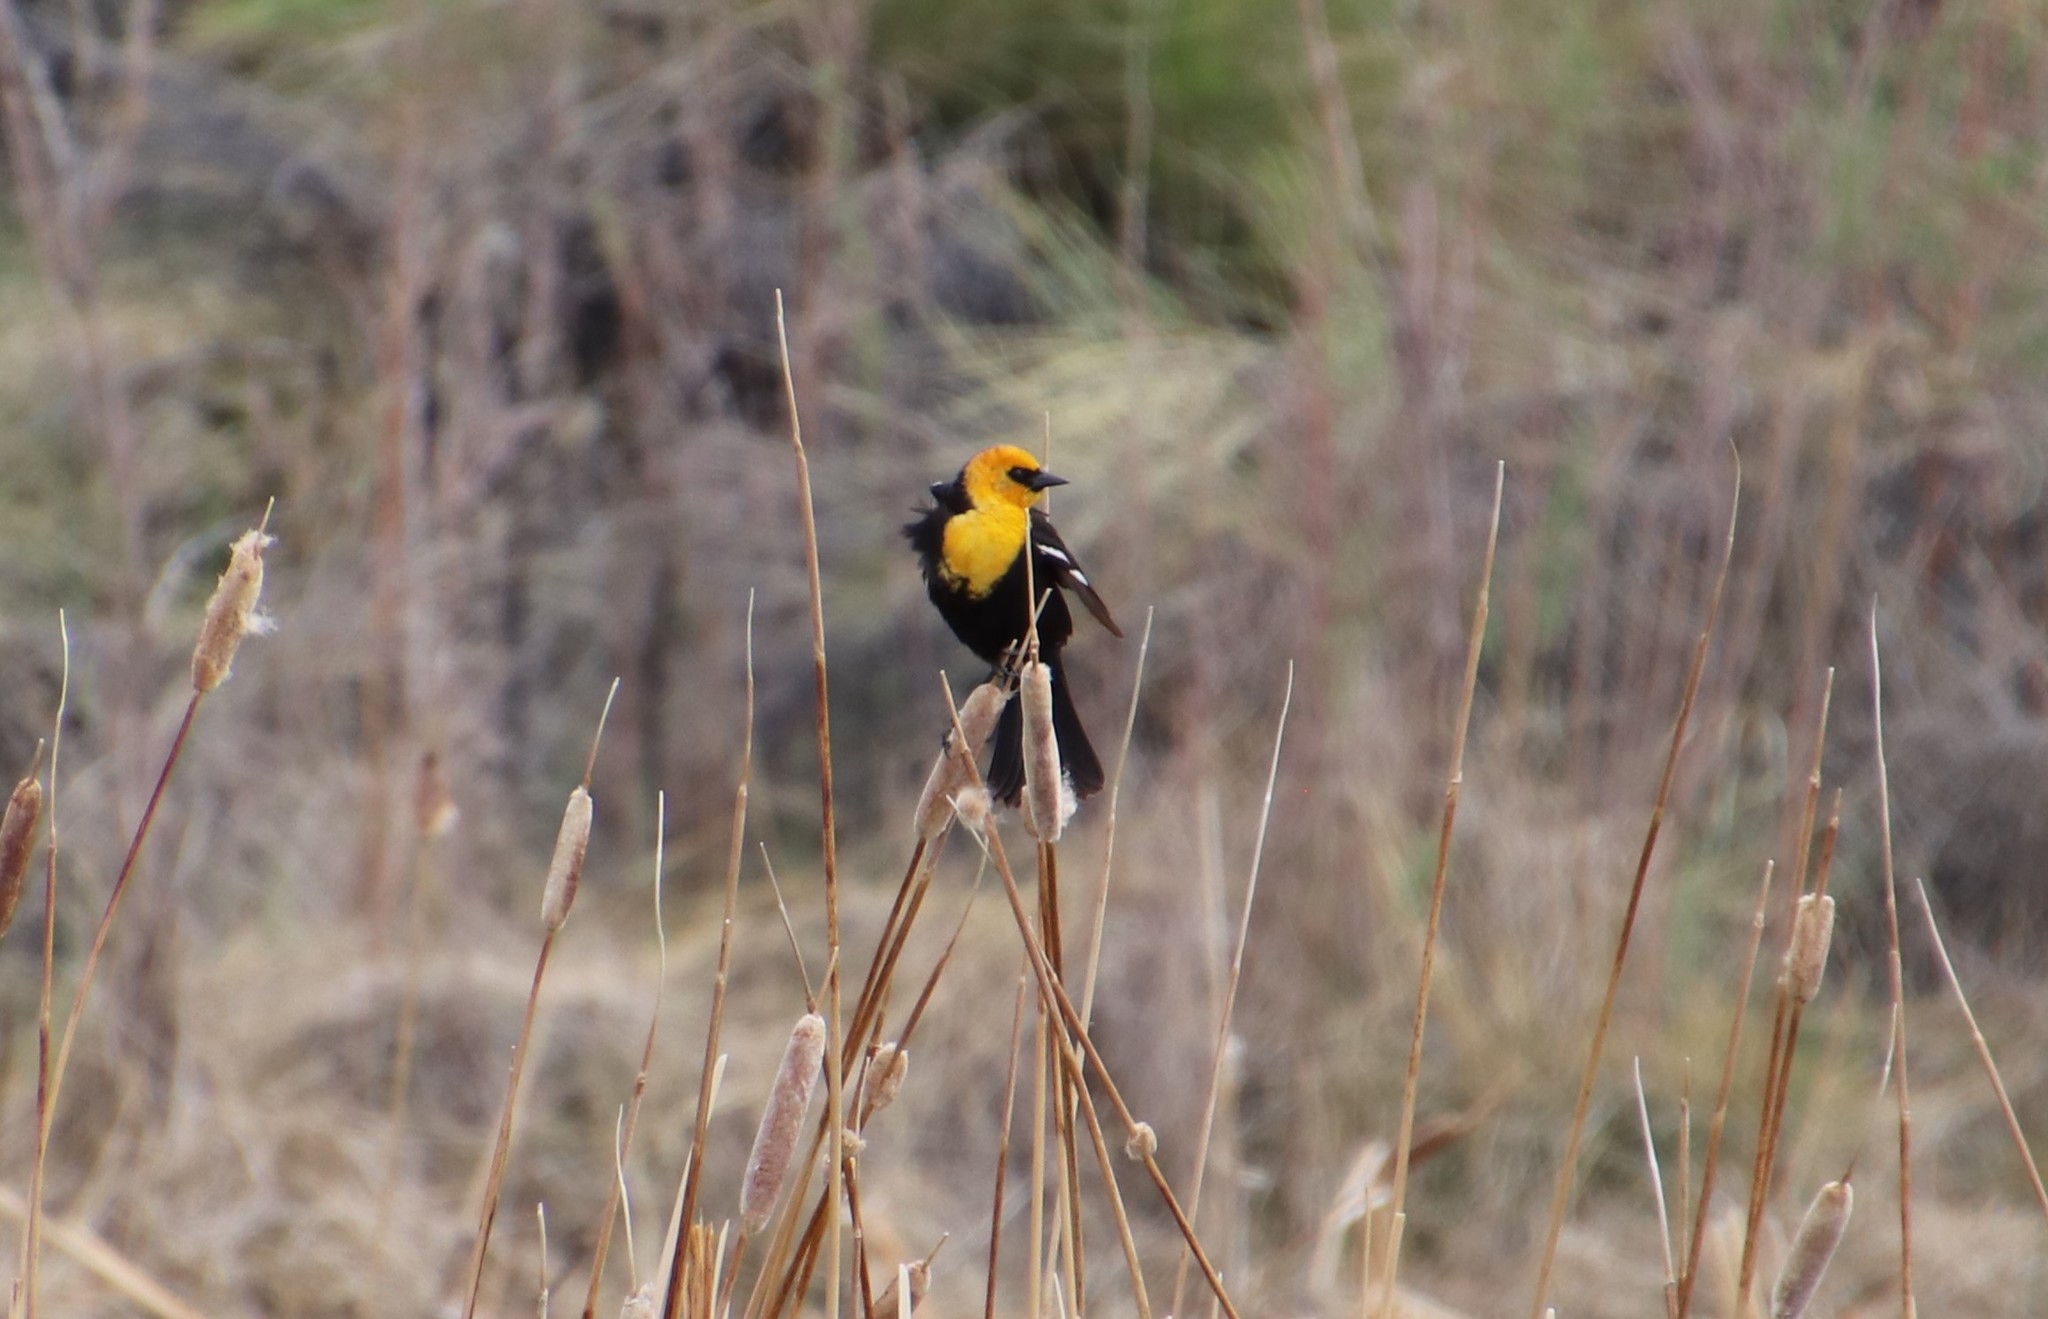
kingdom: Animalia
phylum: Chordata
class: Aves
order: Passeriformes
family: Icteridae
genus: Xanthocephalus
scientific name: Xanthocephalus xanthocephalus
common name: Yellow-headed blackbird
